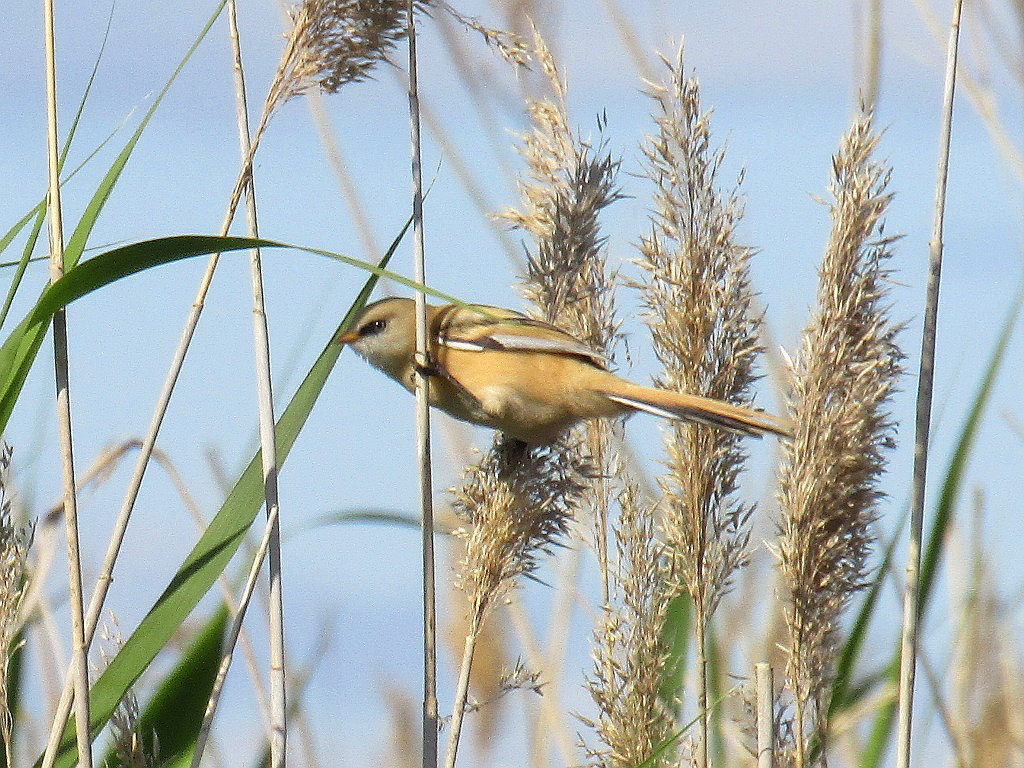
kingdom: Animalia
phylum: Chordata
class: Aves
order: Passeriformes
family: Panuridae
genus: Panurus
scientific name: Panurus biarmicus
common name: Bearded reedling
